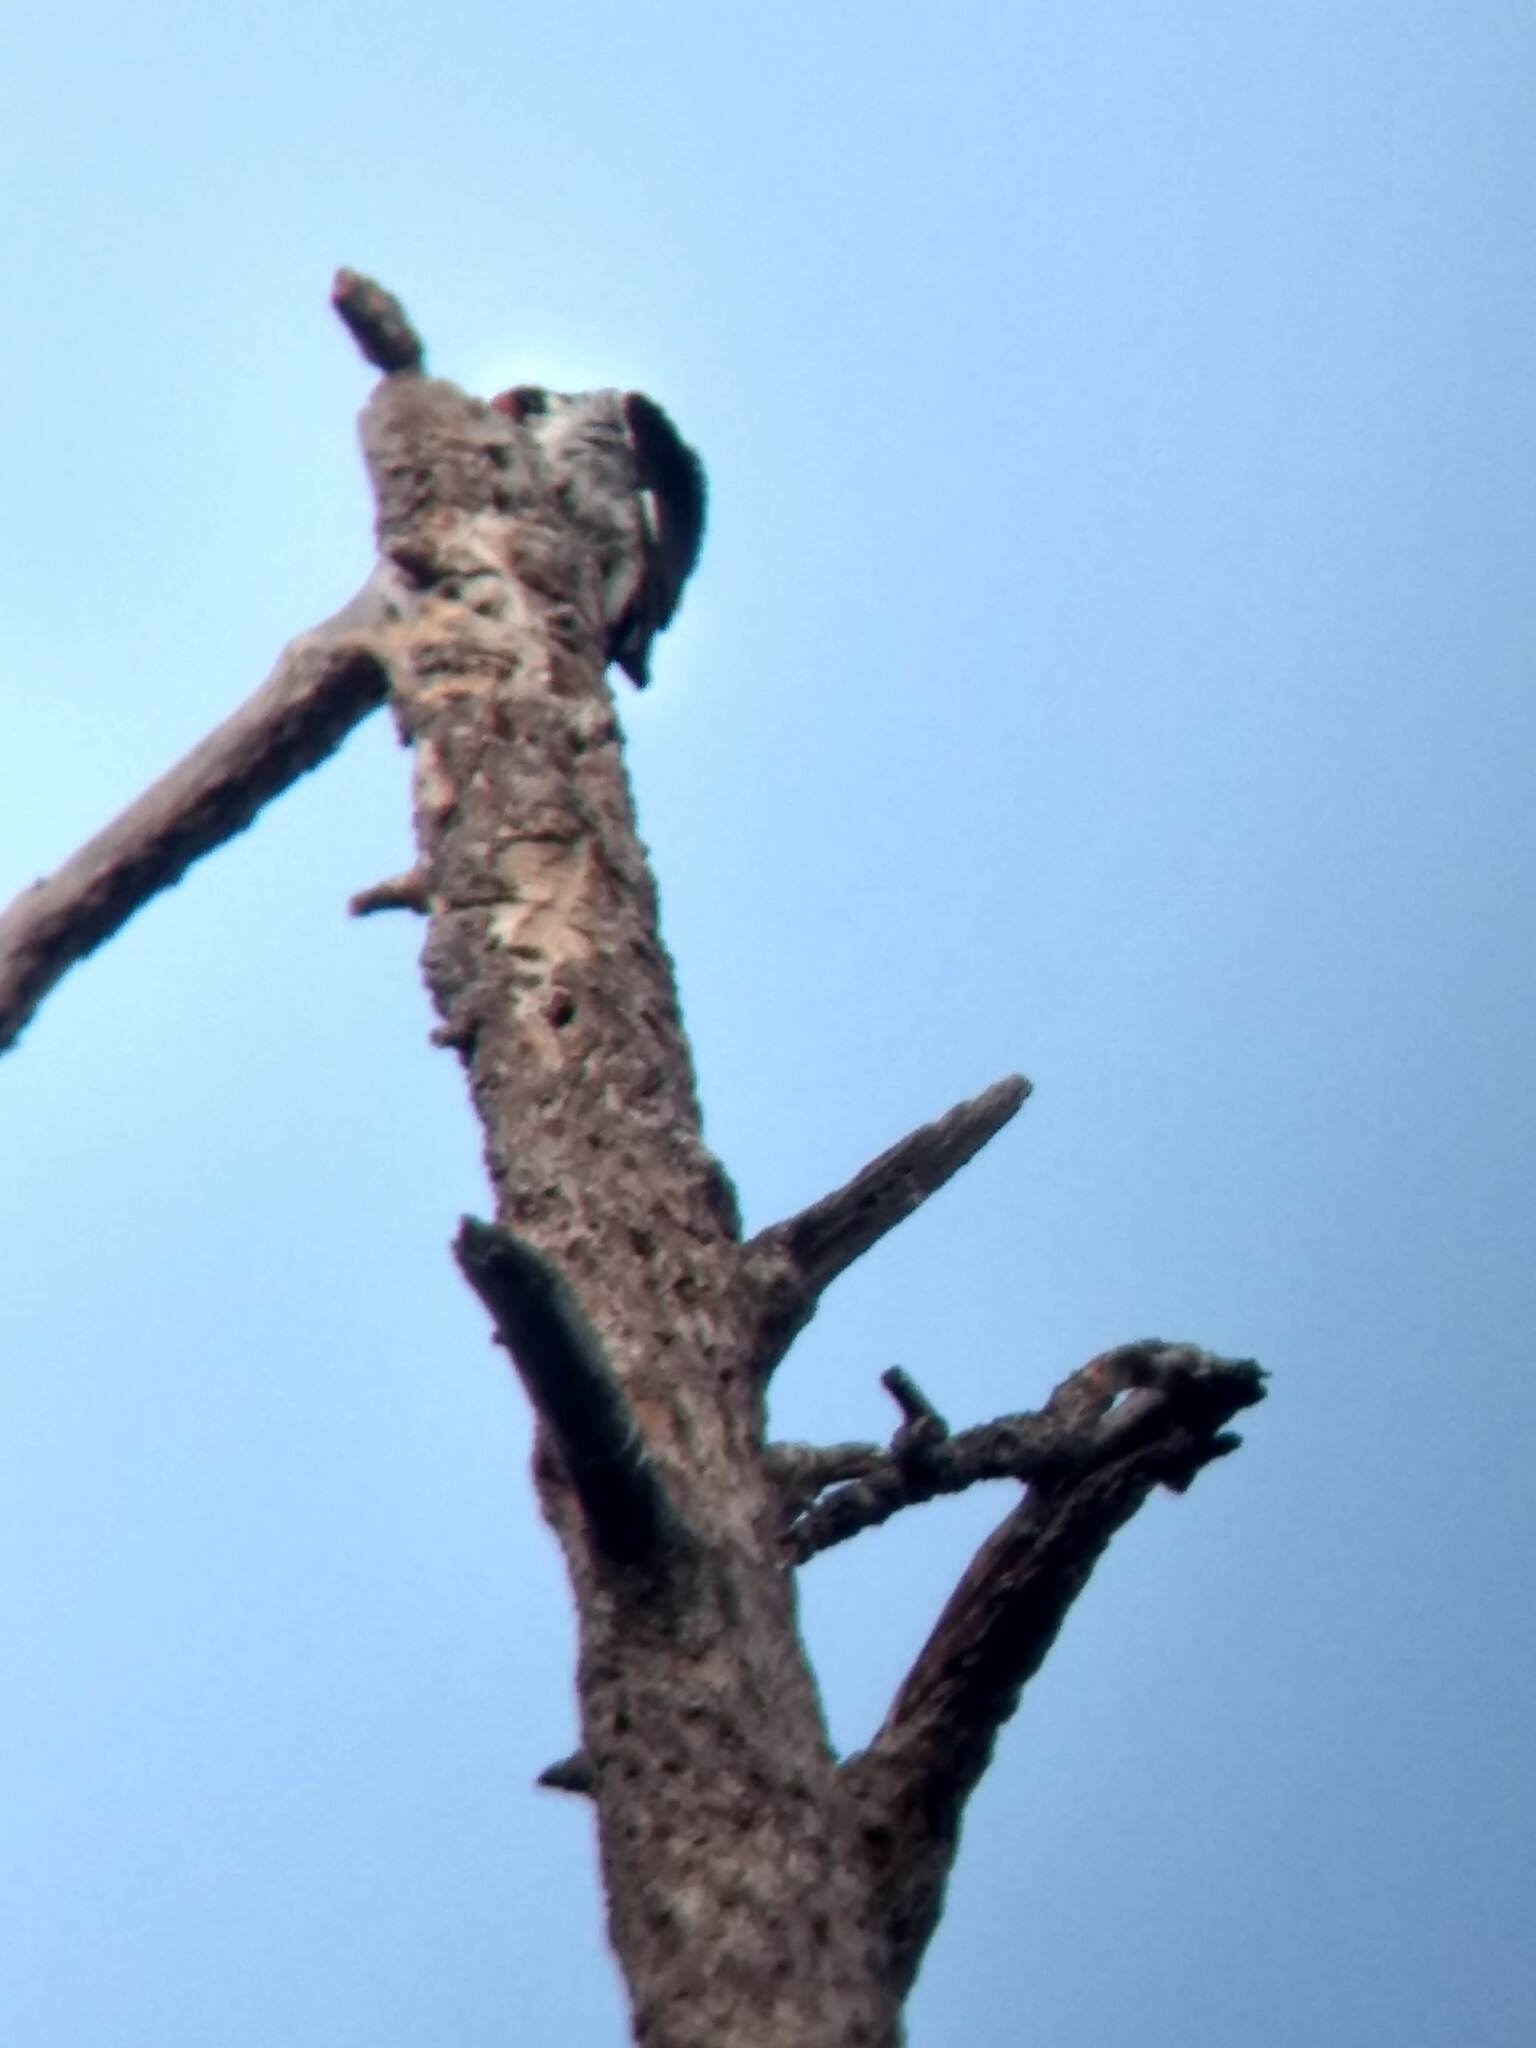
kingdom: Animalia
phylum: Chordata
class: Aves
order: Piciformes
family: Picidae
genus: Melanerpes
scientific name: Melanerpes formicivorus
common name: Acorn woodpecker
